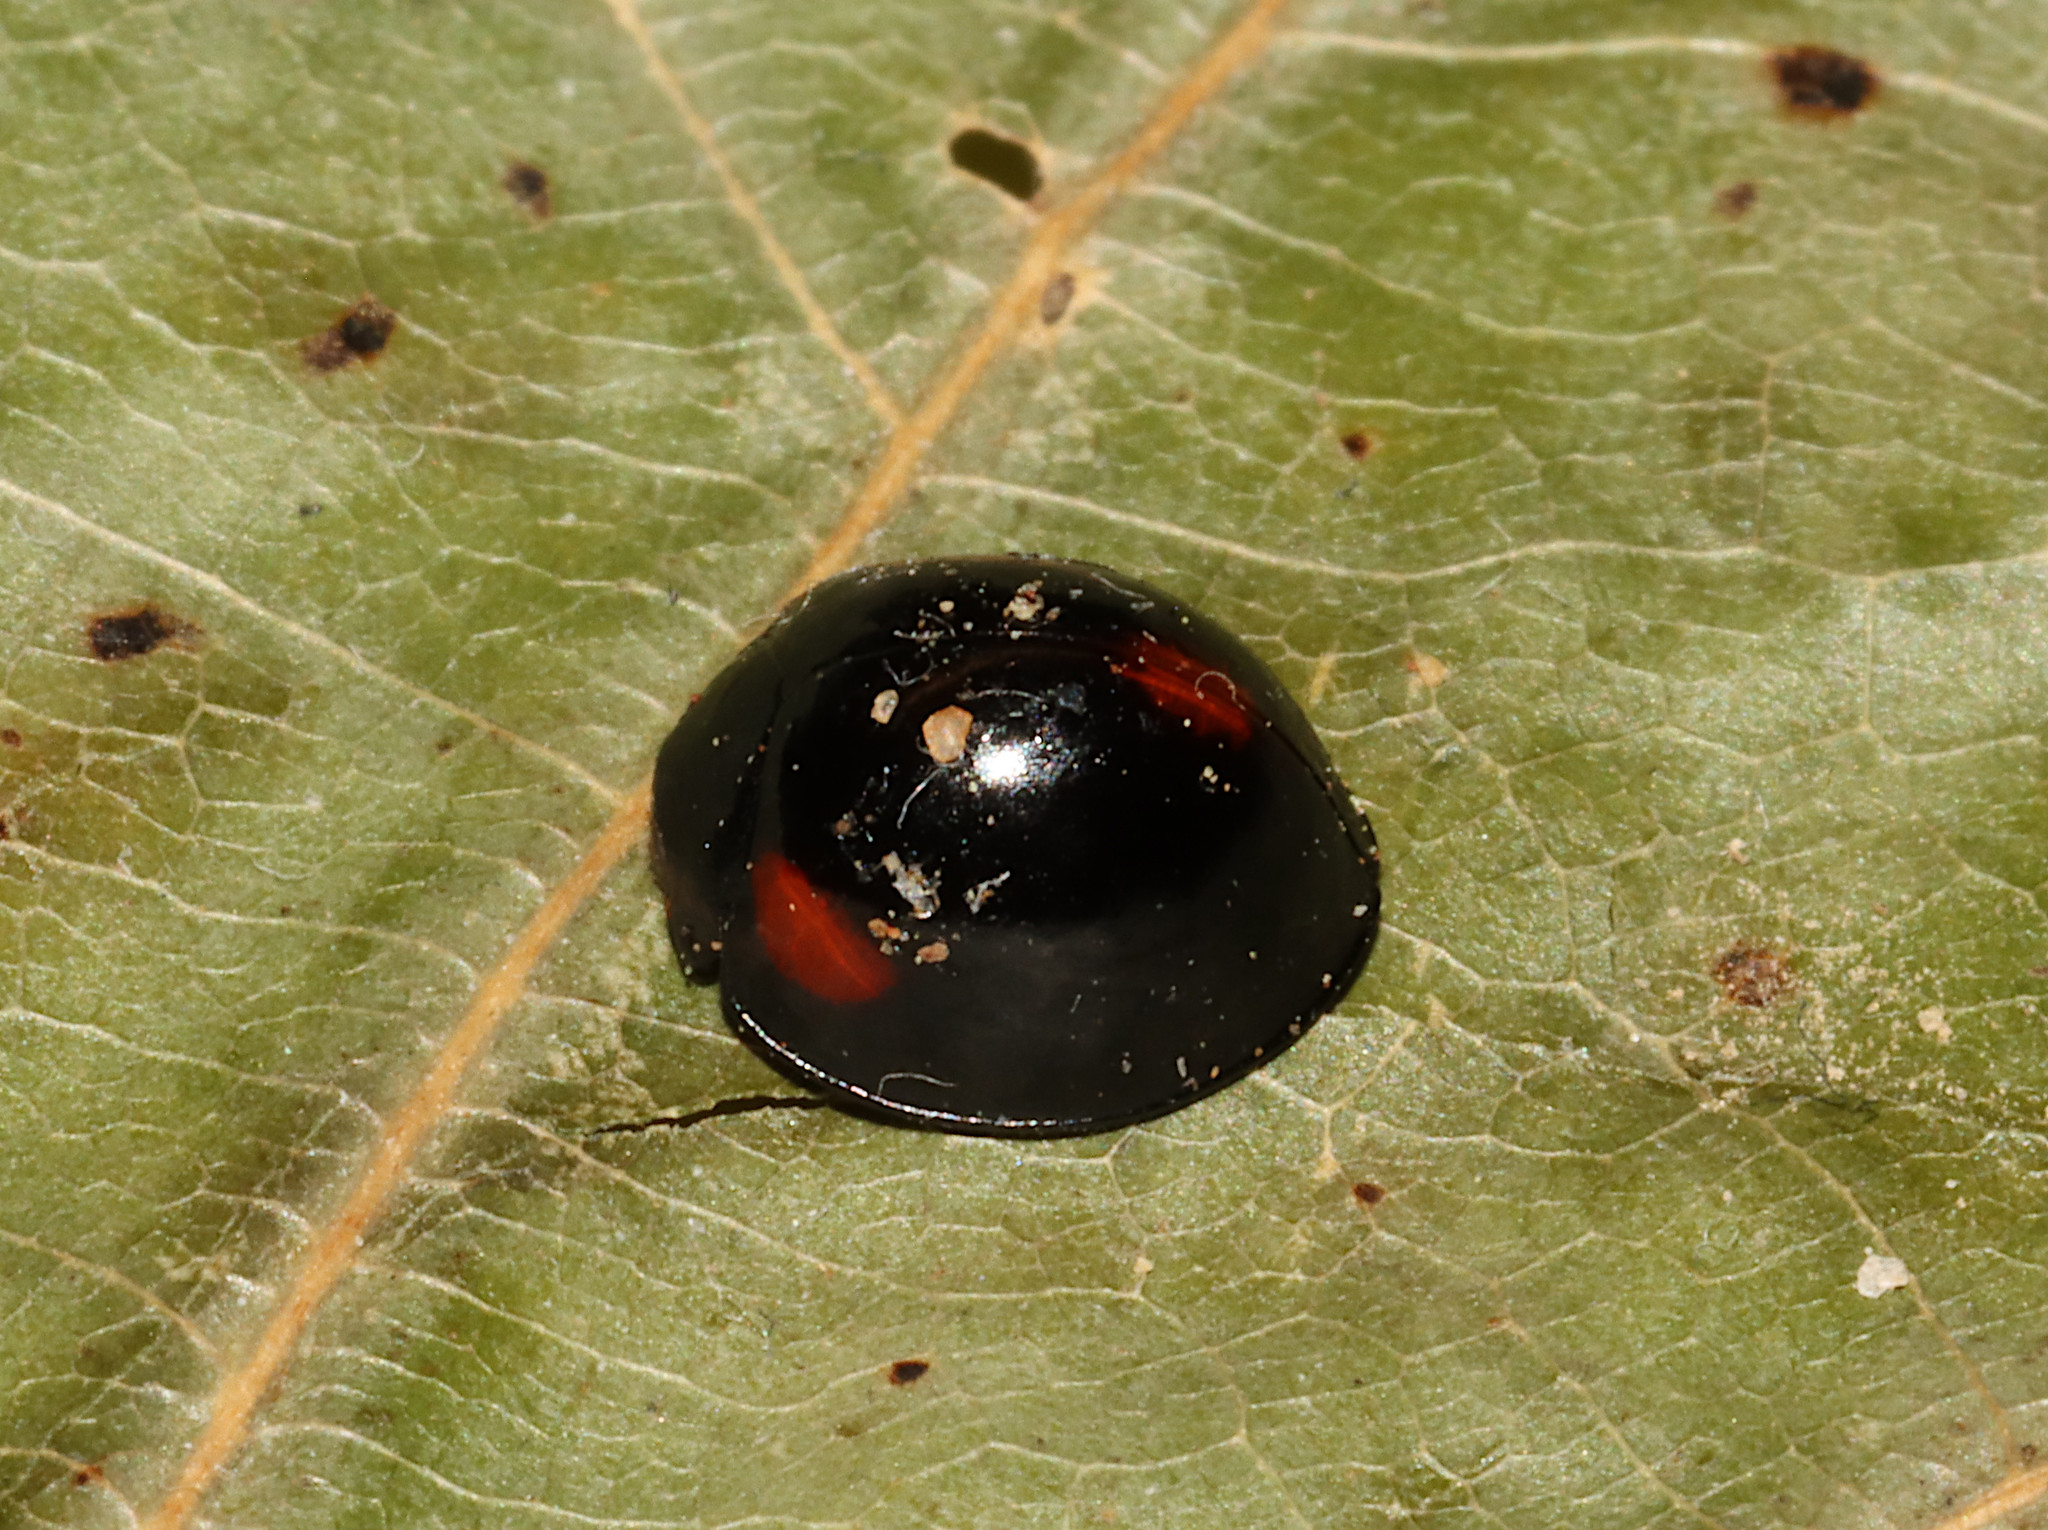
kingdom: Animalia
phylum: Arthropoda
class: Insecta
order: Coleoptera
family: Coccinellidae
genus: Axion
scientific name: Axion tripustulatum
